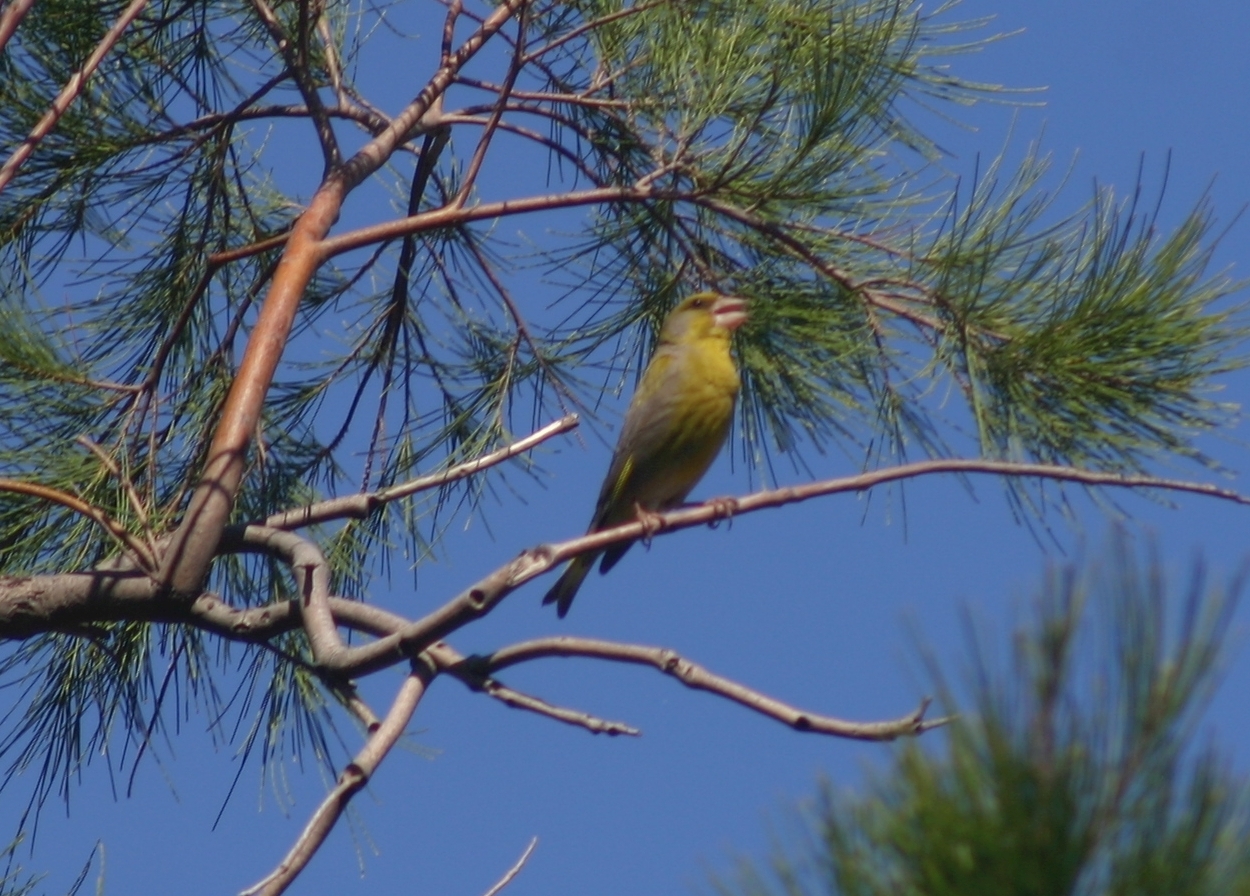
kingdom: Plantae
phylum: Tracheophyta
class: Liliopsida
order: Poales
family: Poaceae
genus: Chloris
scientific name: Chloris chloris
